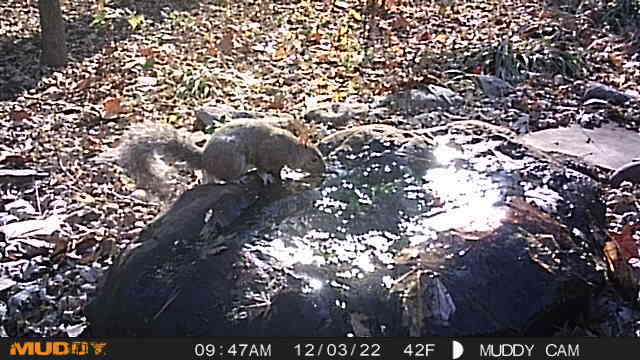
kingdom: Animalia
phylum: Chordata
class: Mammalia
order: Rodentia
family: Sciuridae
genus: Sciurus
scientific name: Sciurus carolinensis
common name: Eastern gray squirrel
